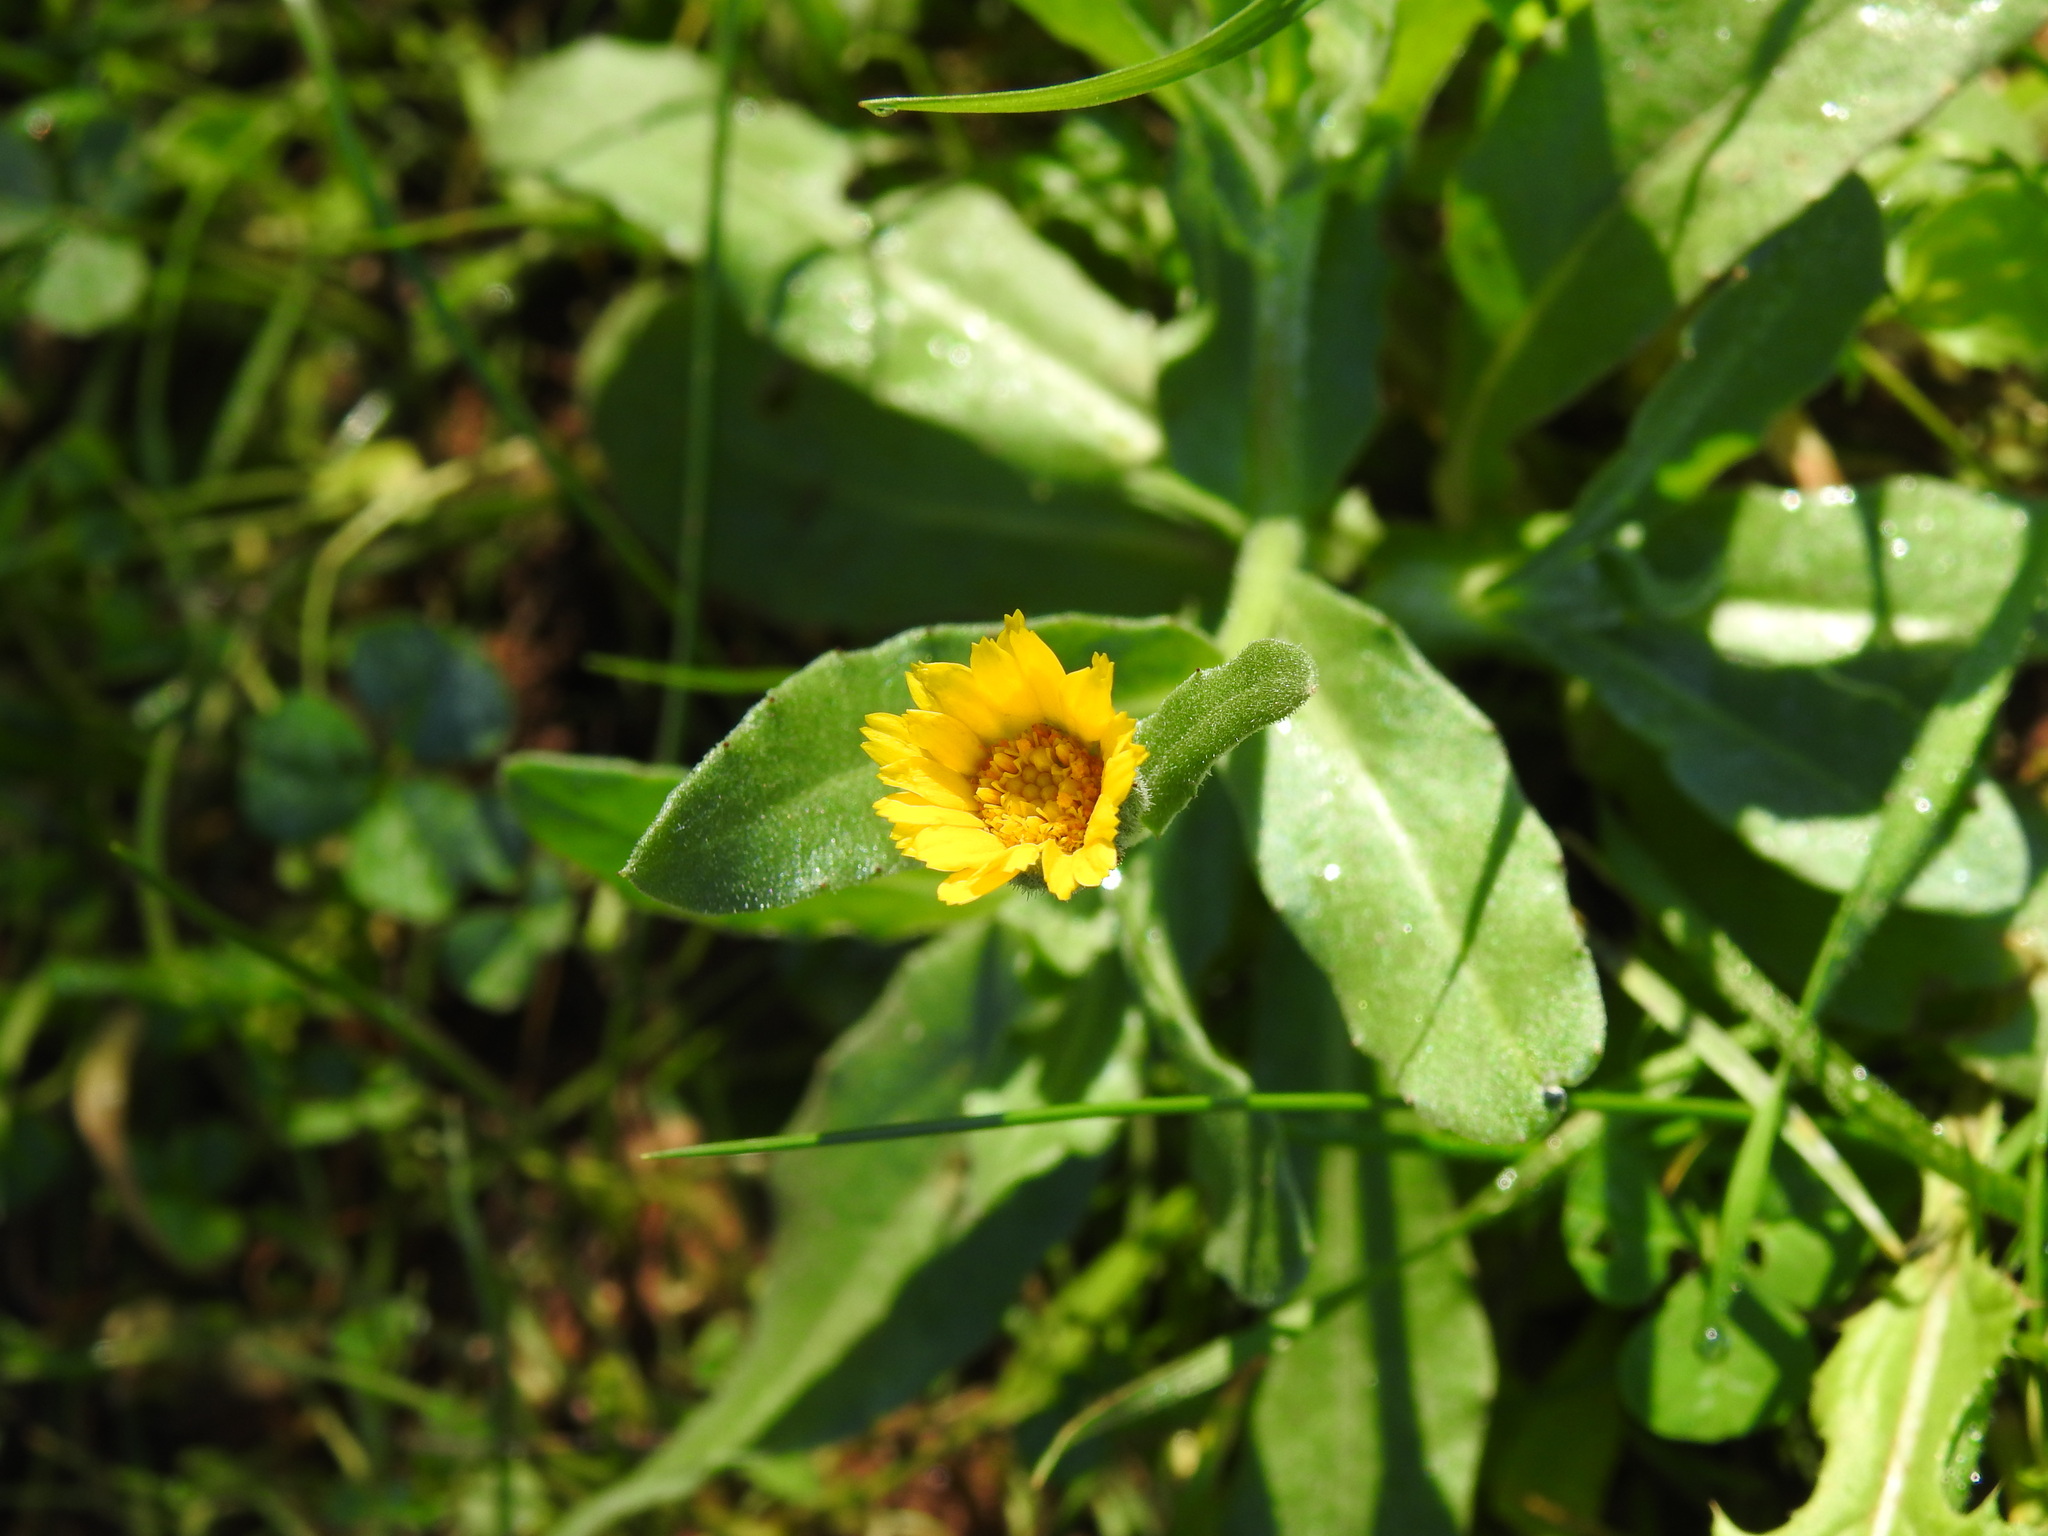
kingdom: Plantae
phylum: Tracheophyta
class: Magnoliopsida
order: Asterales
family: Asteraceae
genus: Calendula
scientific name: Calendula arvensis
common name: Field marigold
